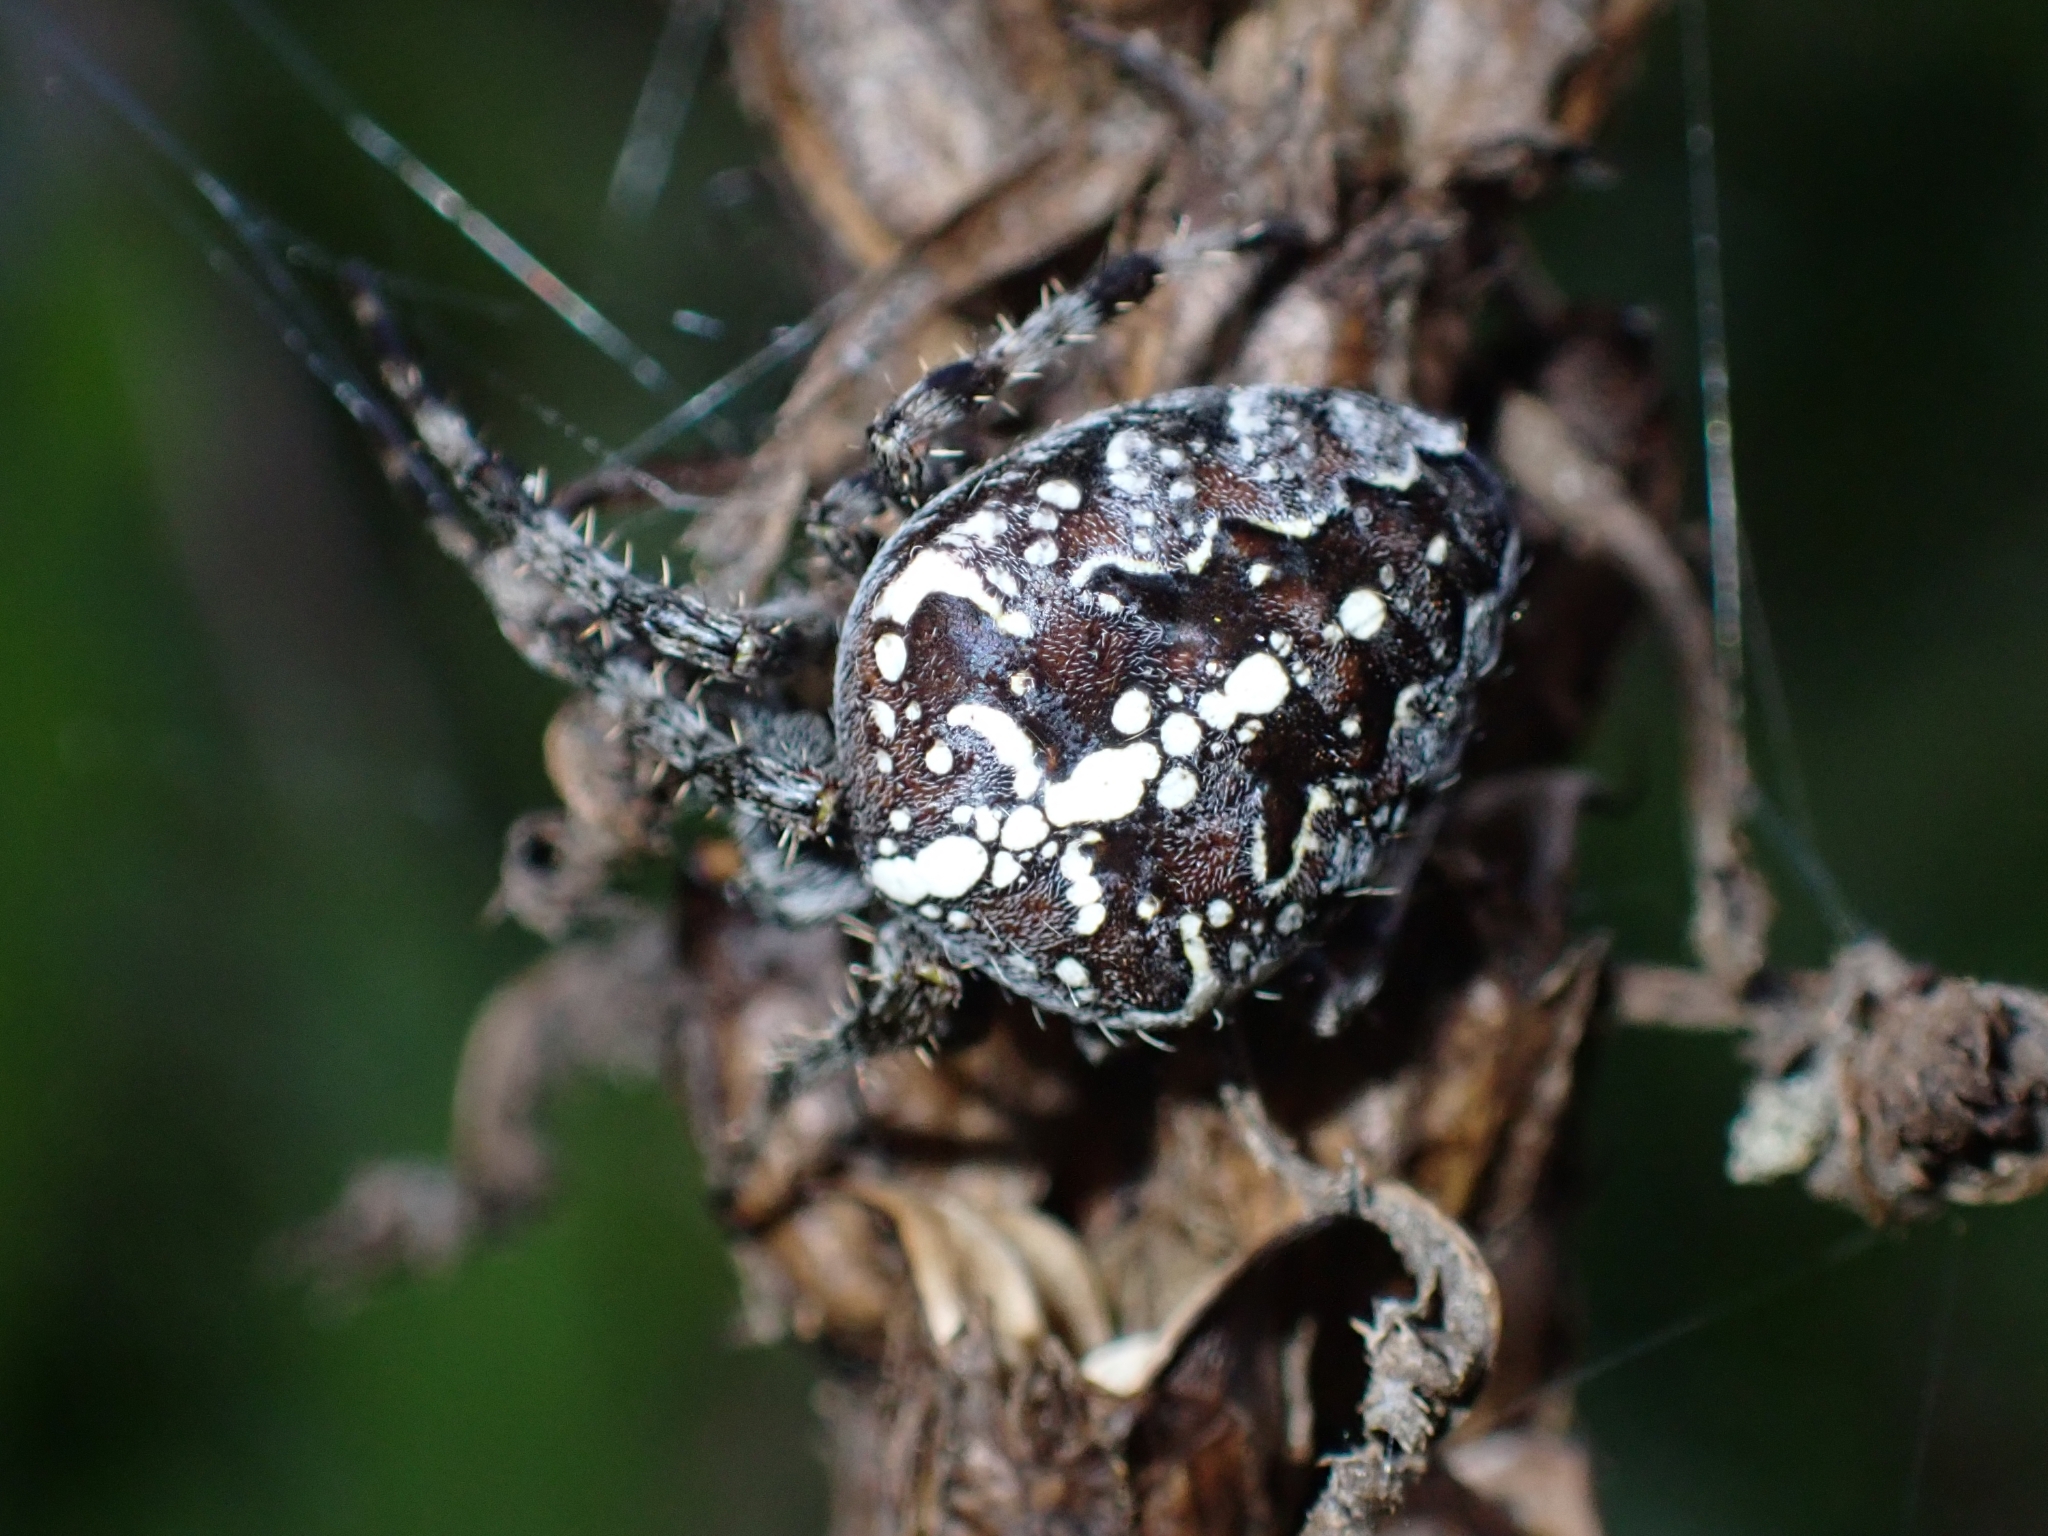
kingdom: Animalia
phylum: Arthropoda
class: Arachnida
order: Araneae
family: Araneidae
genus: Araneus
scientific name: Araneus diadematus
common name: Cross orbweaver
